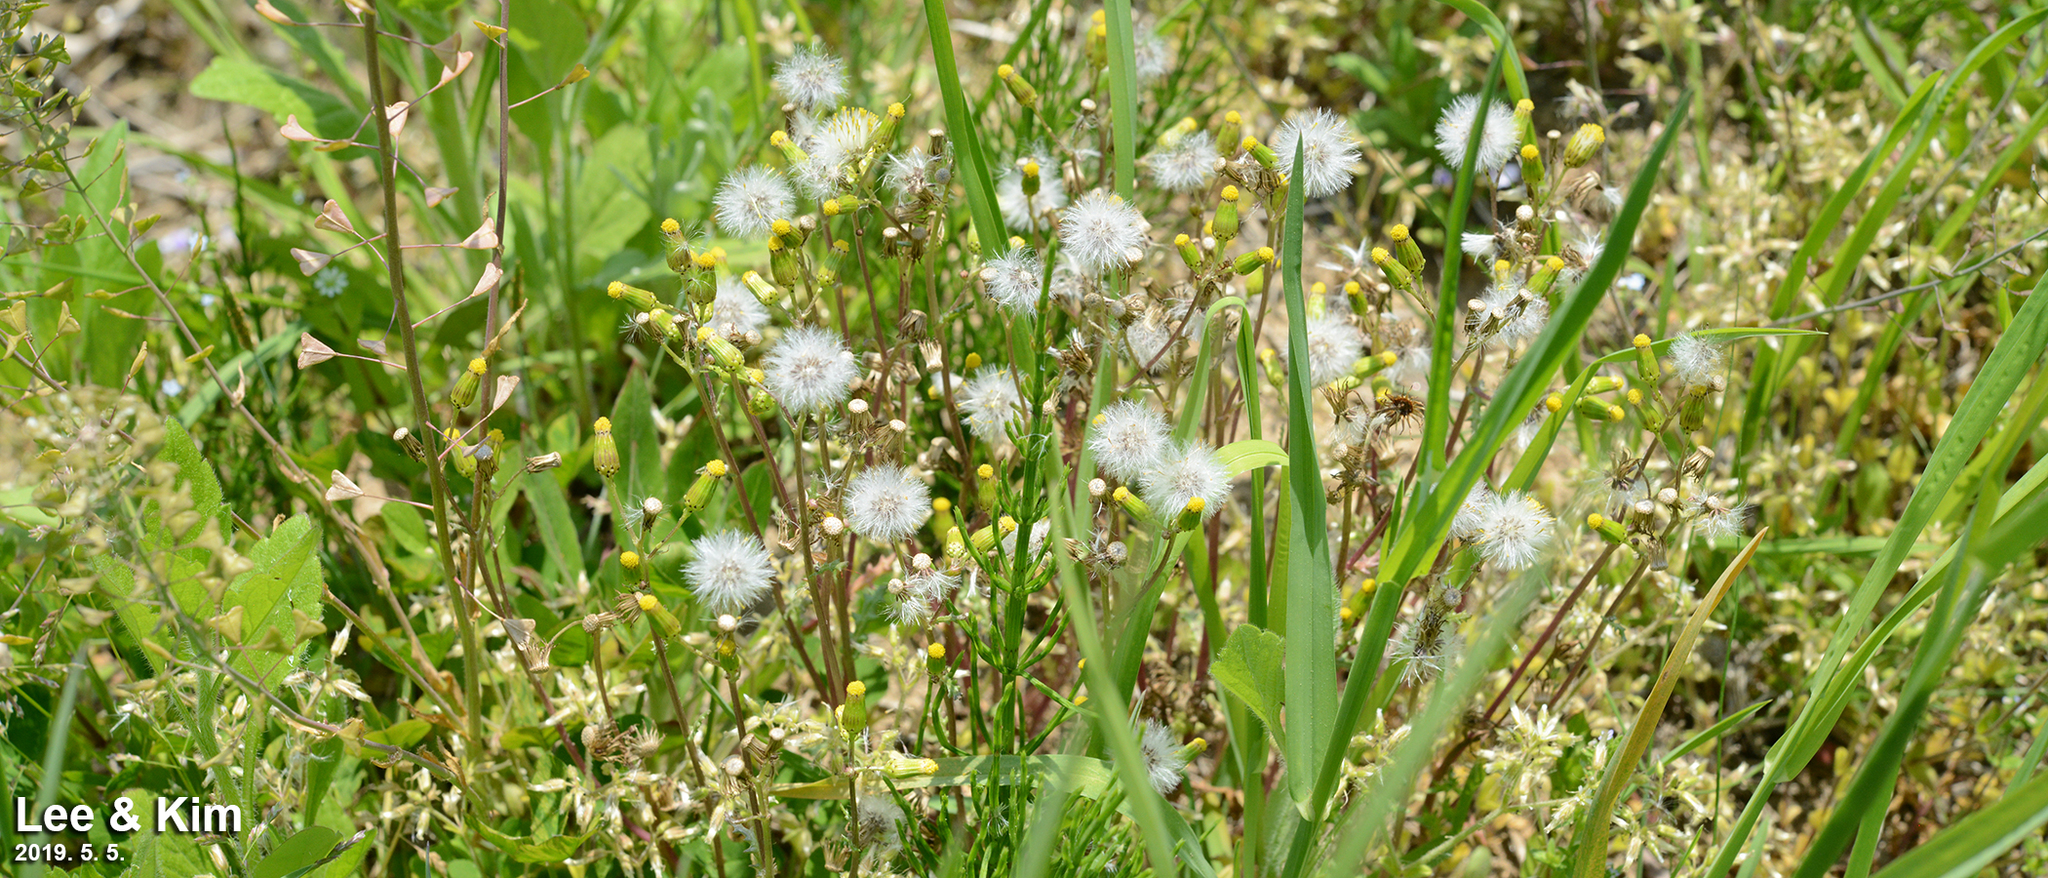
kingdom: Plantae
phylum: Tracheophyta
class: Magnoliopsida
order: Asterales
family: Asteraceae
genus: Senecio
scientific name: Senecio vulgaris
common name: Old-man-in-the-spring
